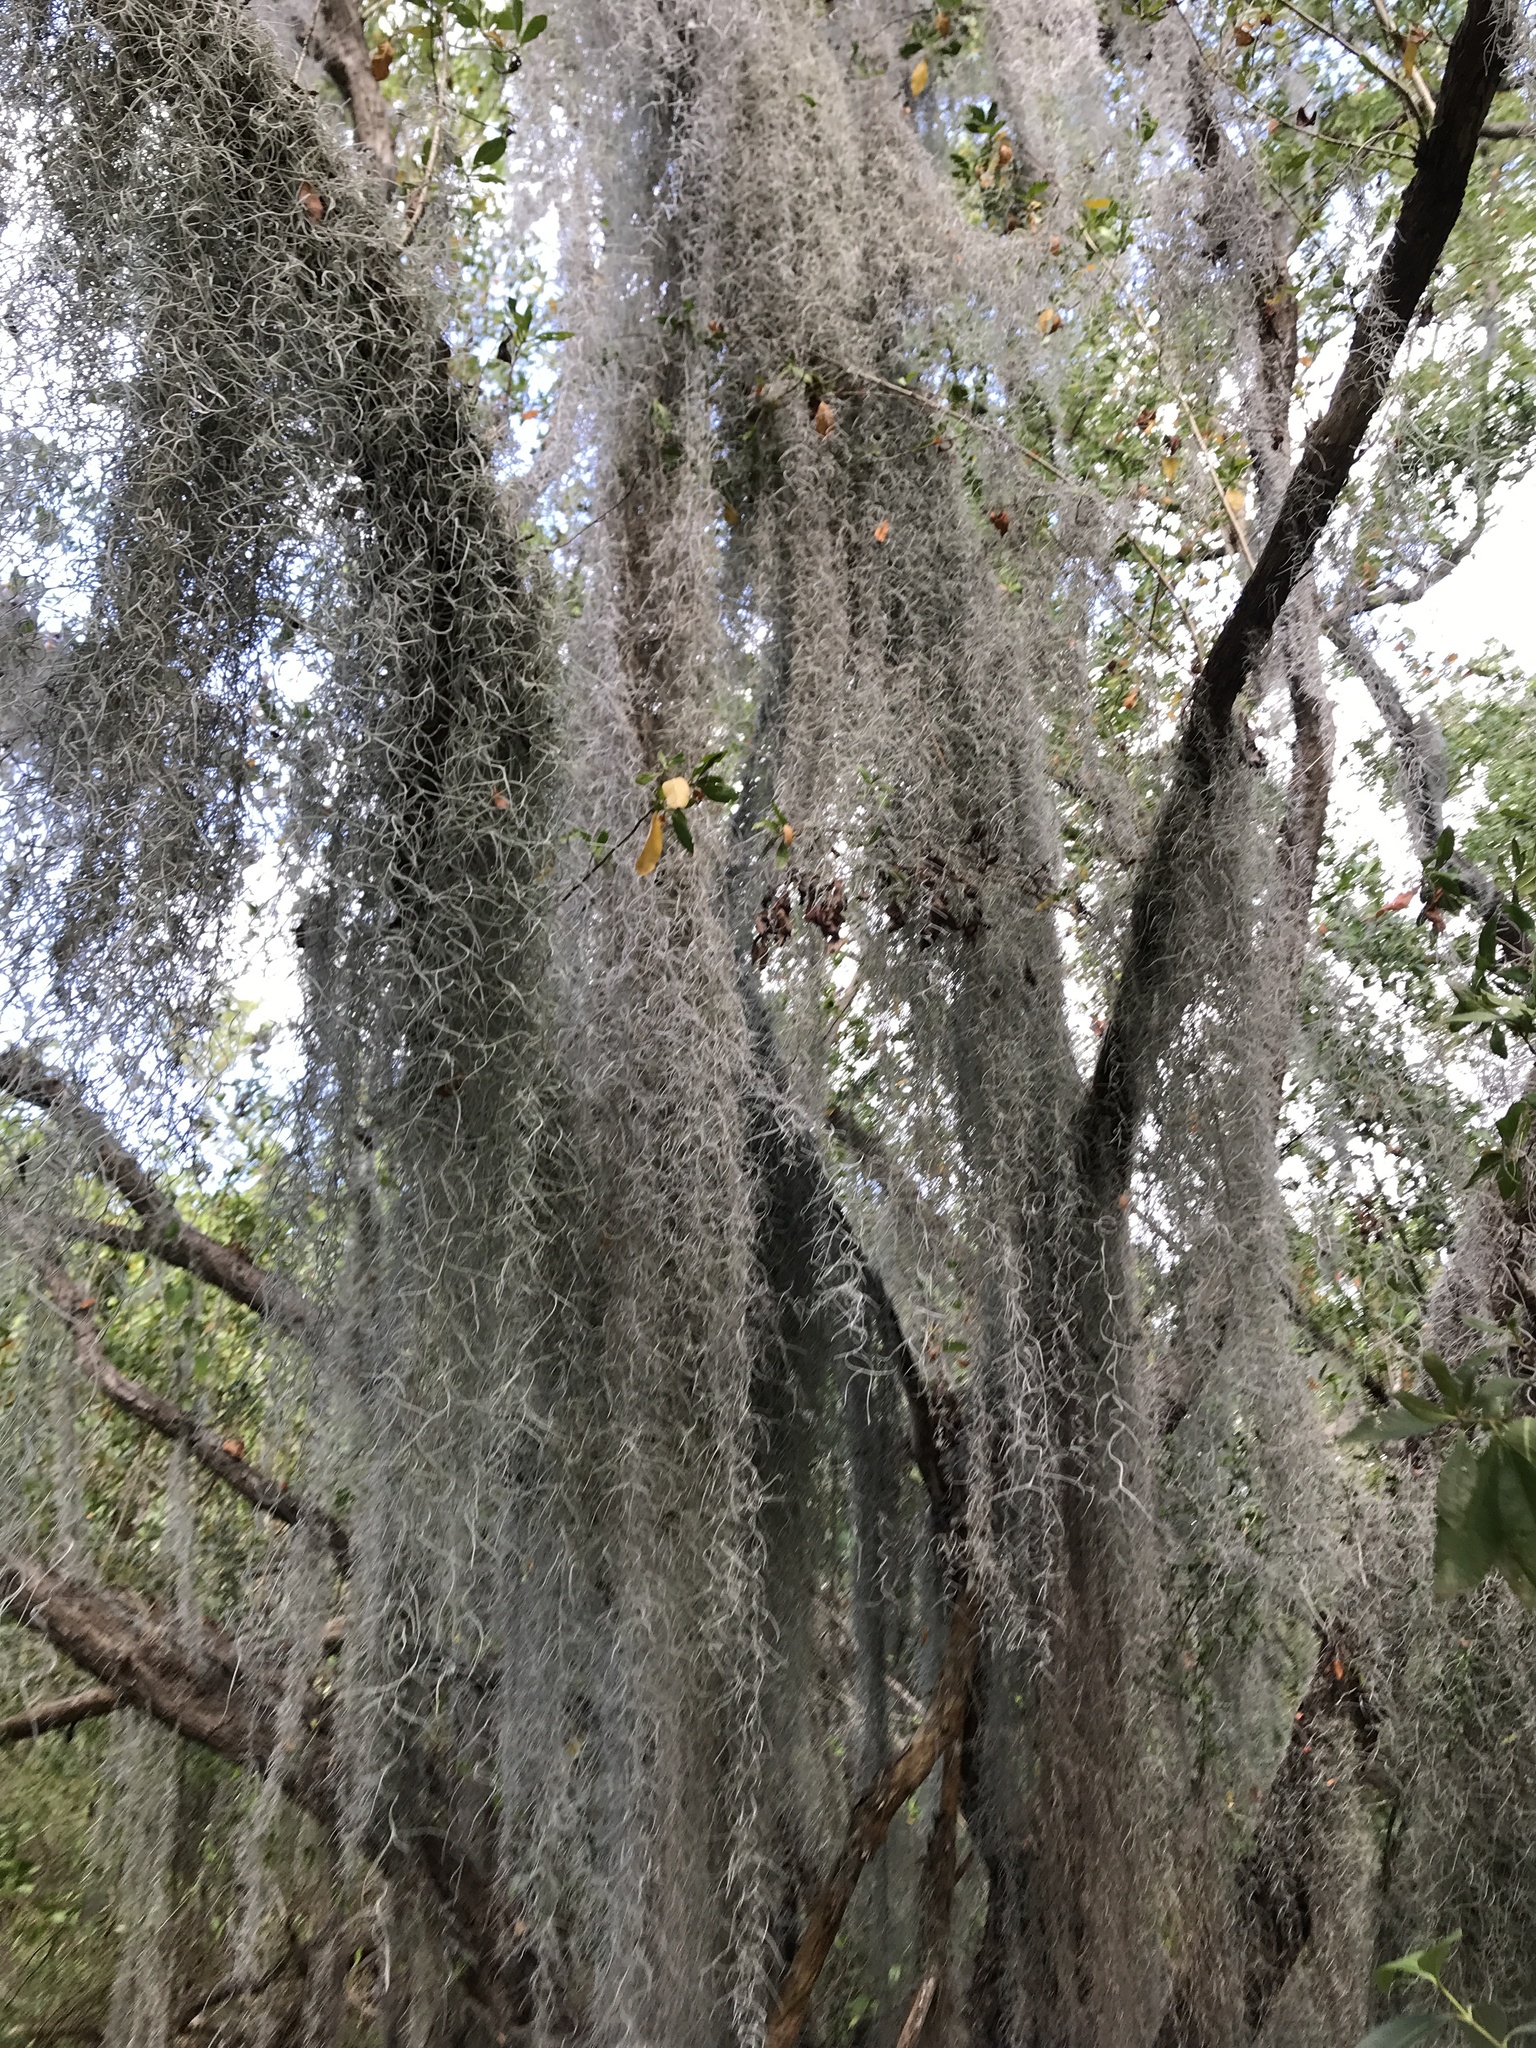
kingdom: Plantae
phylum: Tracheophyta
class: Liliopsida
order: Poales
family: Bromeliaceae
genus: Tillandsia
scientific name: Tillandsia usneoides
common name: Spanish moss
